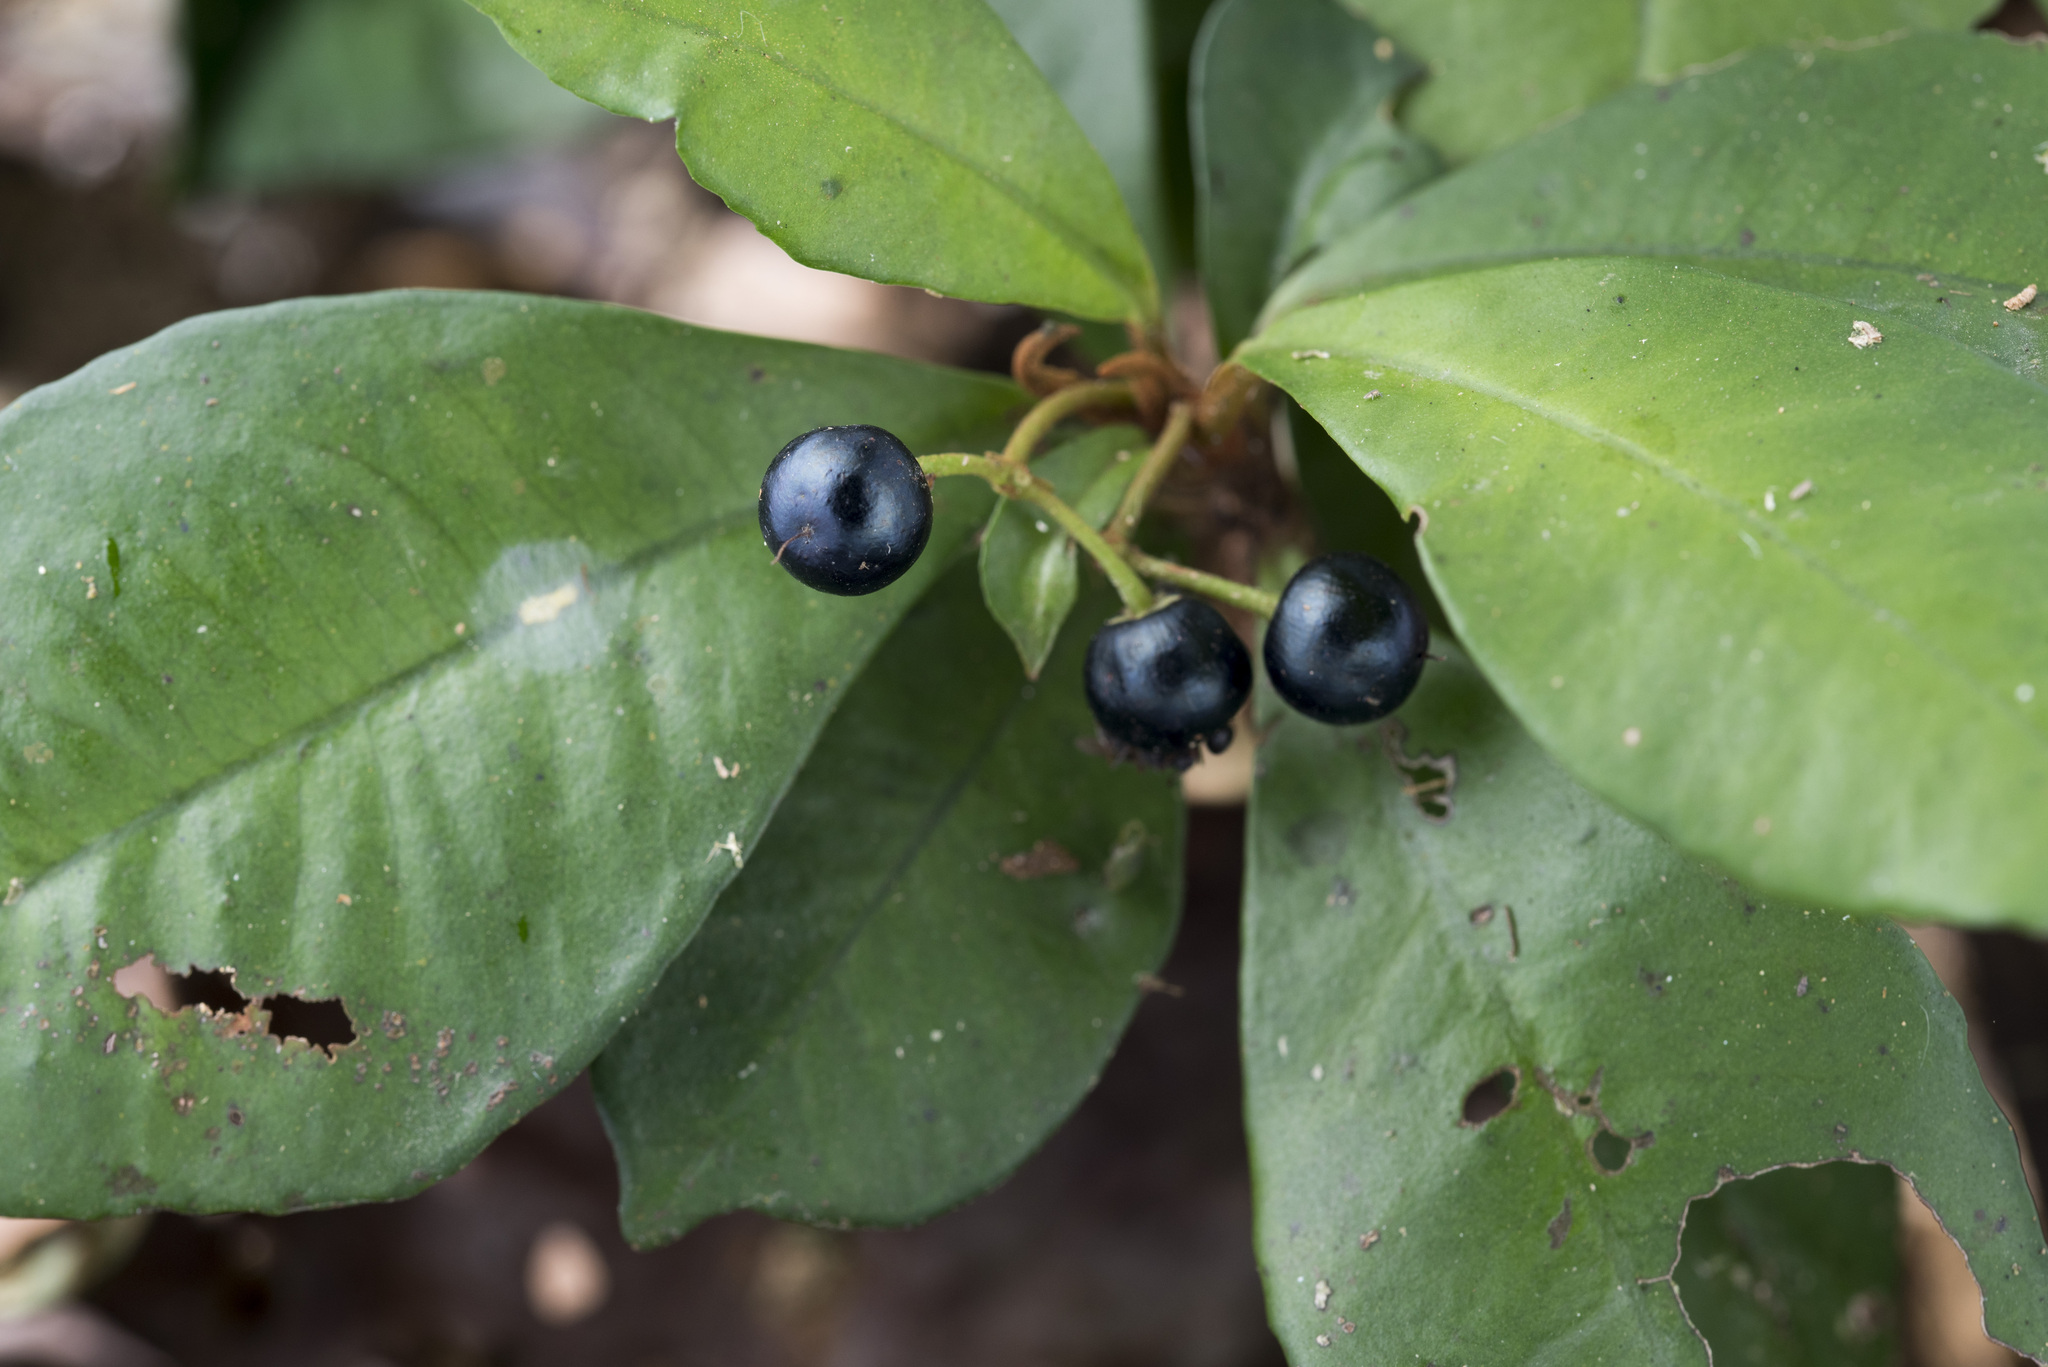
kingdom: Plantae
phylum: Tracheophyta
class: Magnoliopsida
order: Ericales
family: Primulaceae
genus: Ardisia
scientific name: Ardisia cymosa
